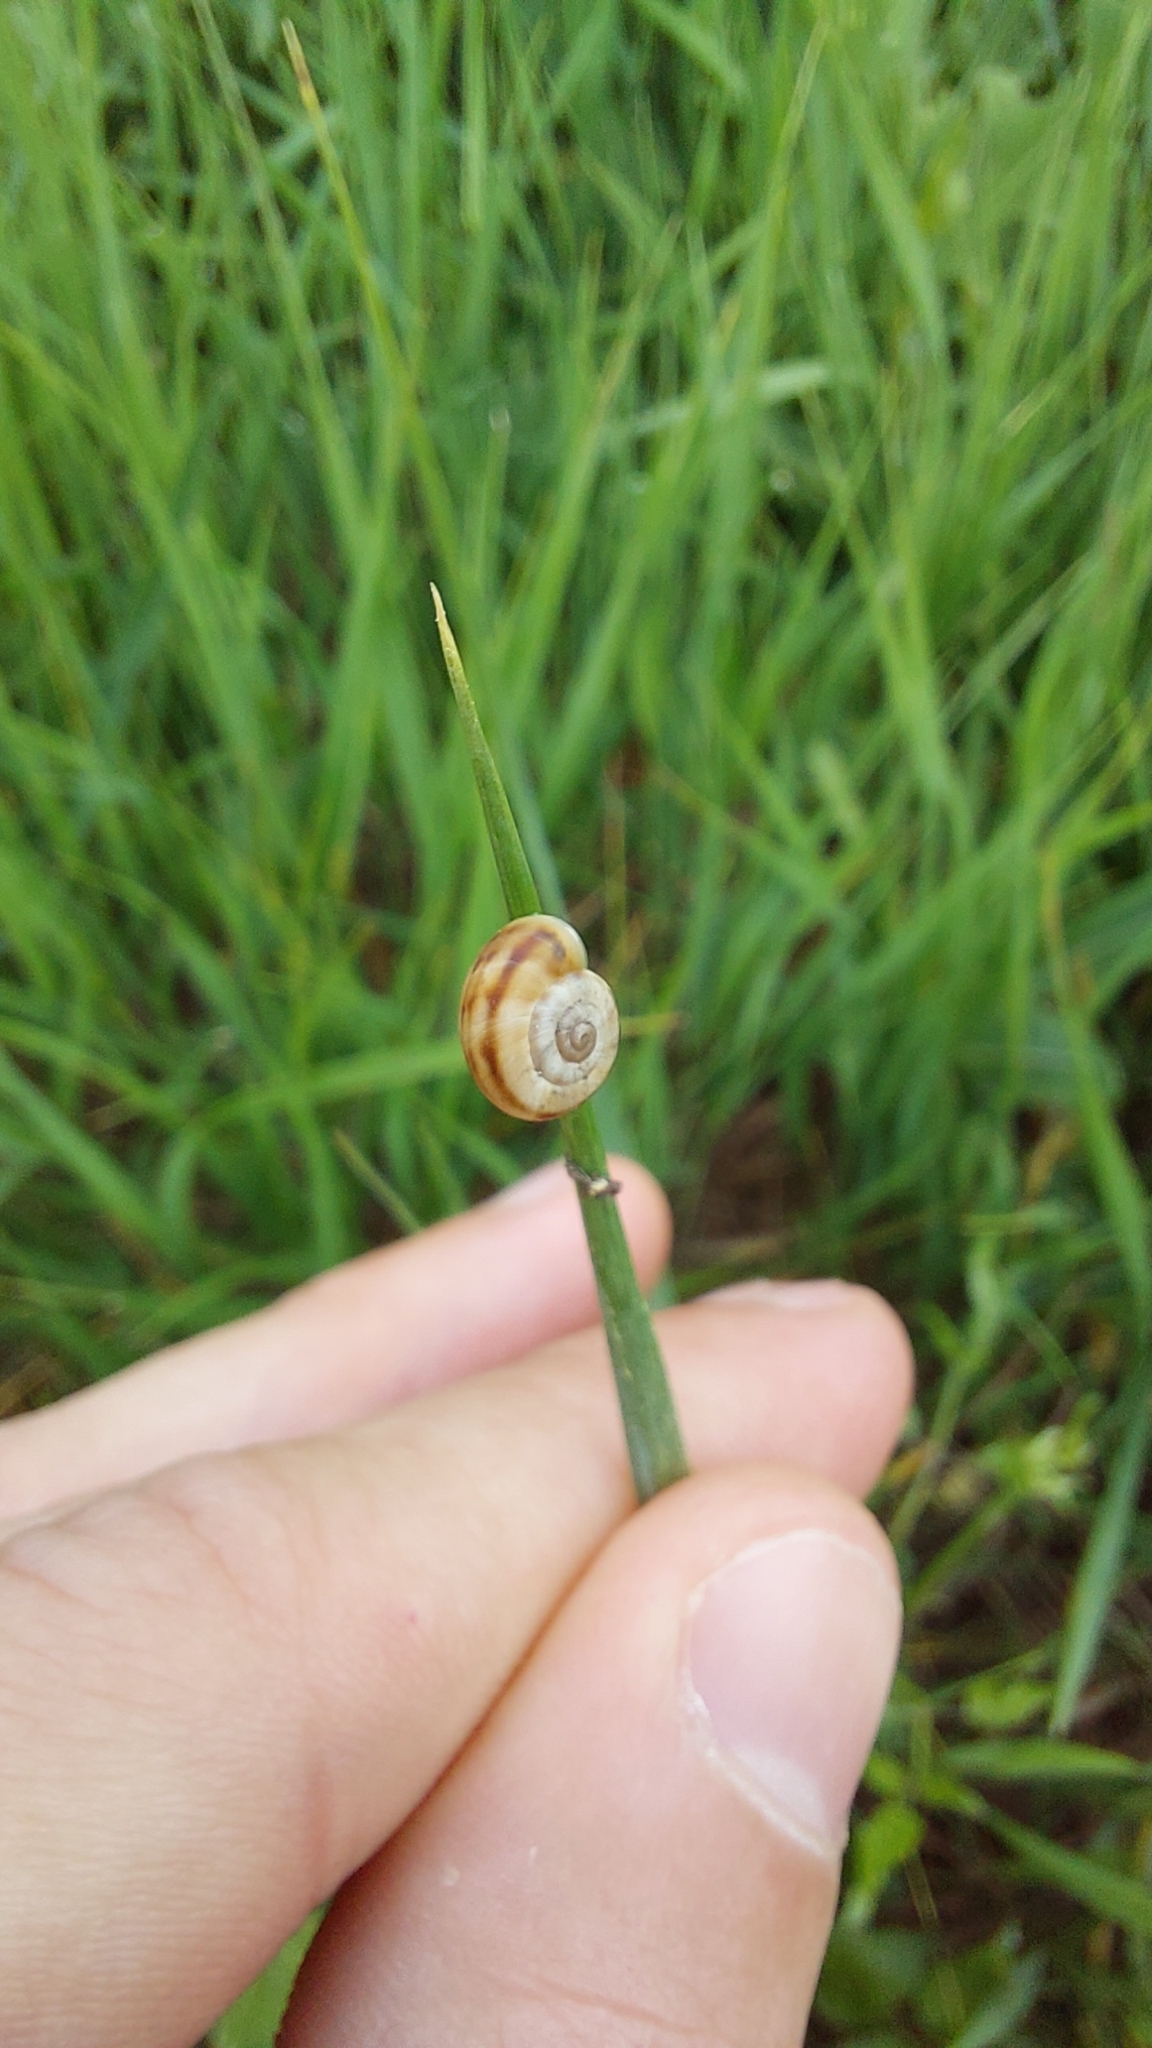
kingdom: Animalia
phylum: Mollusca
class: Gastropoda
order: Stylommatophora
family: Geomitridae
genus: Xerolenta
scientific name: Xerolenta obvia
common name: White heath snail
